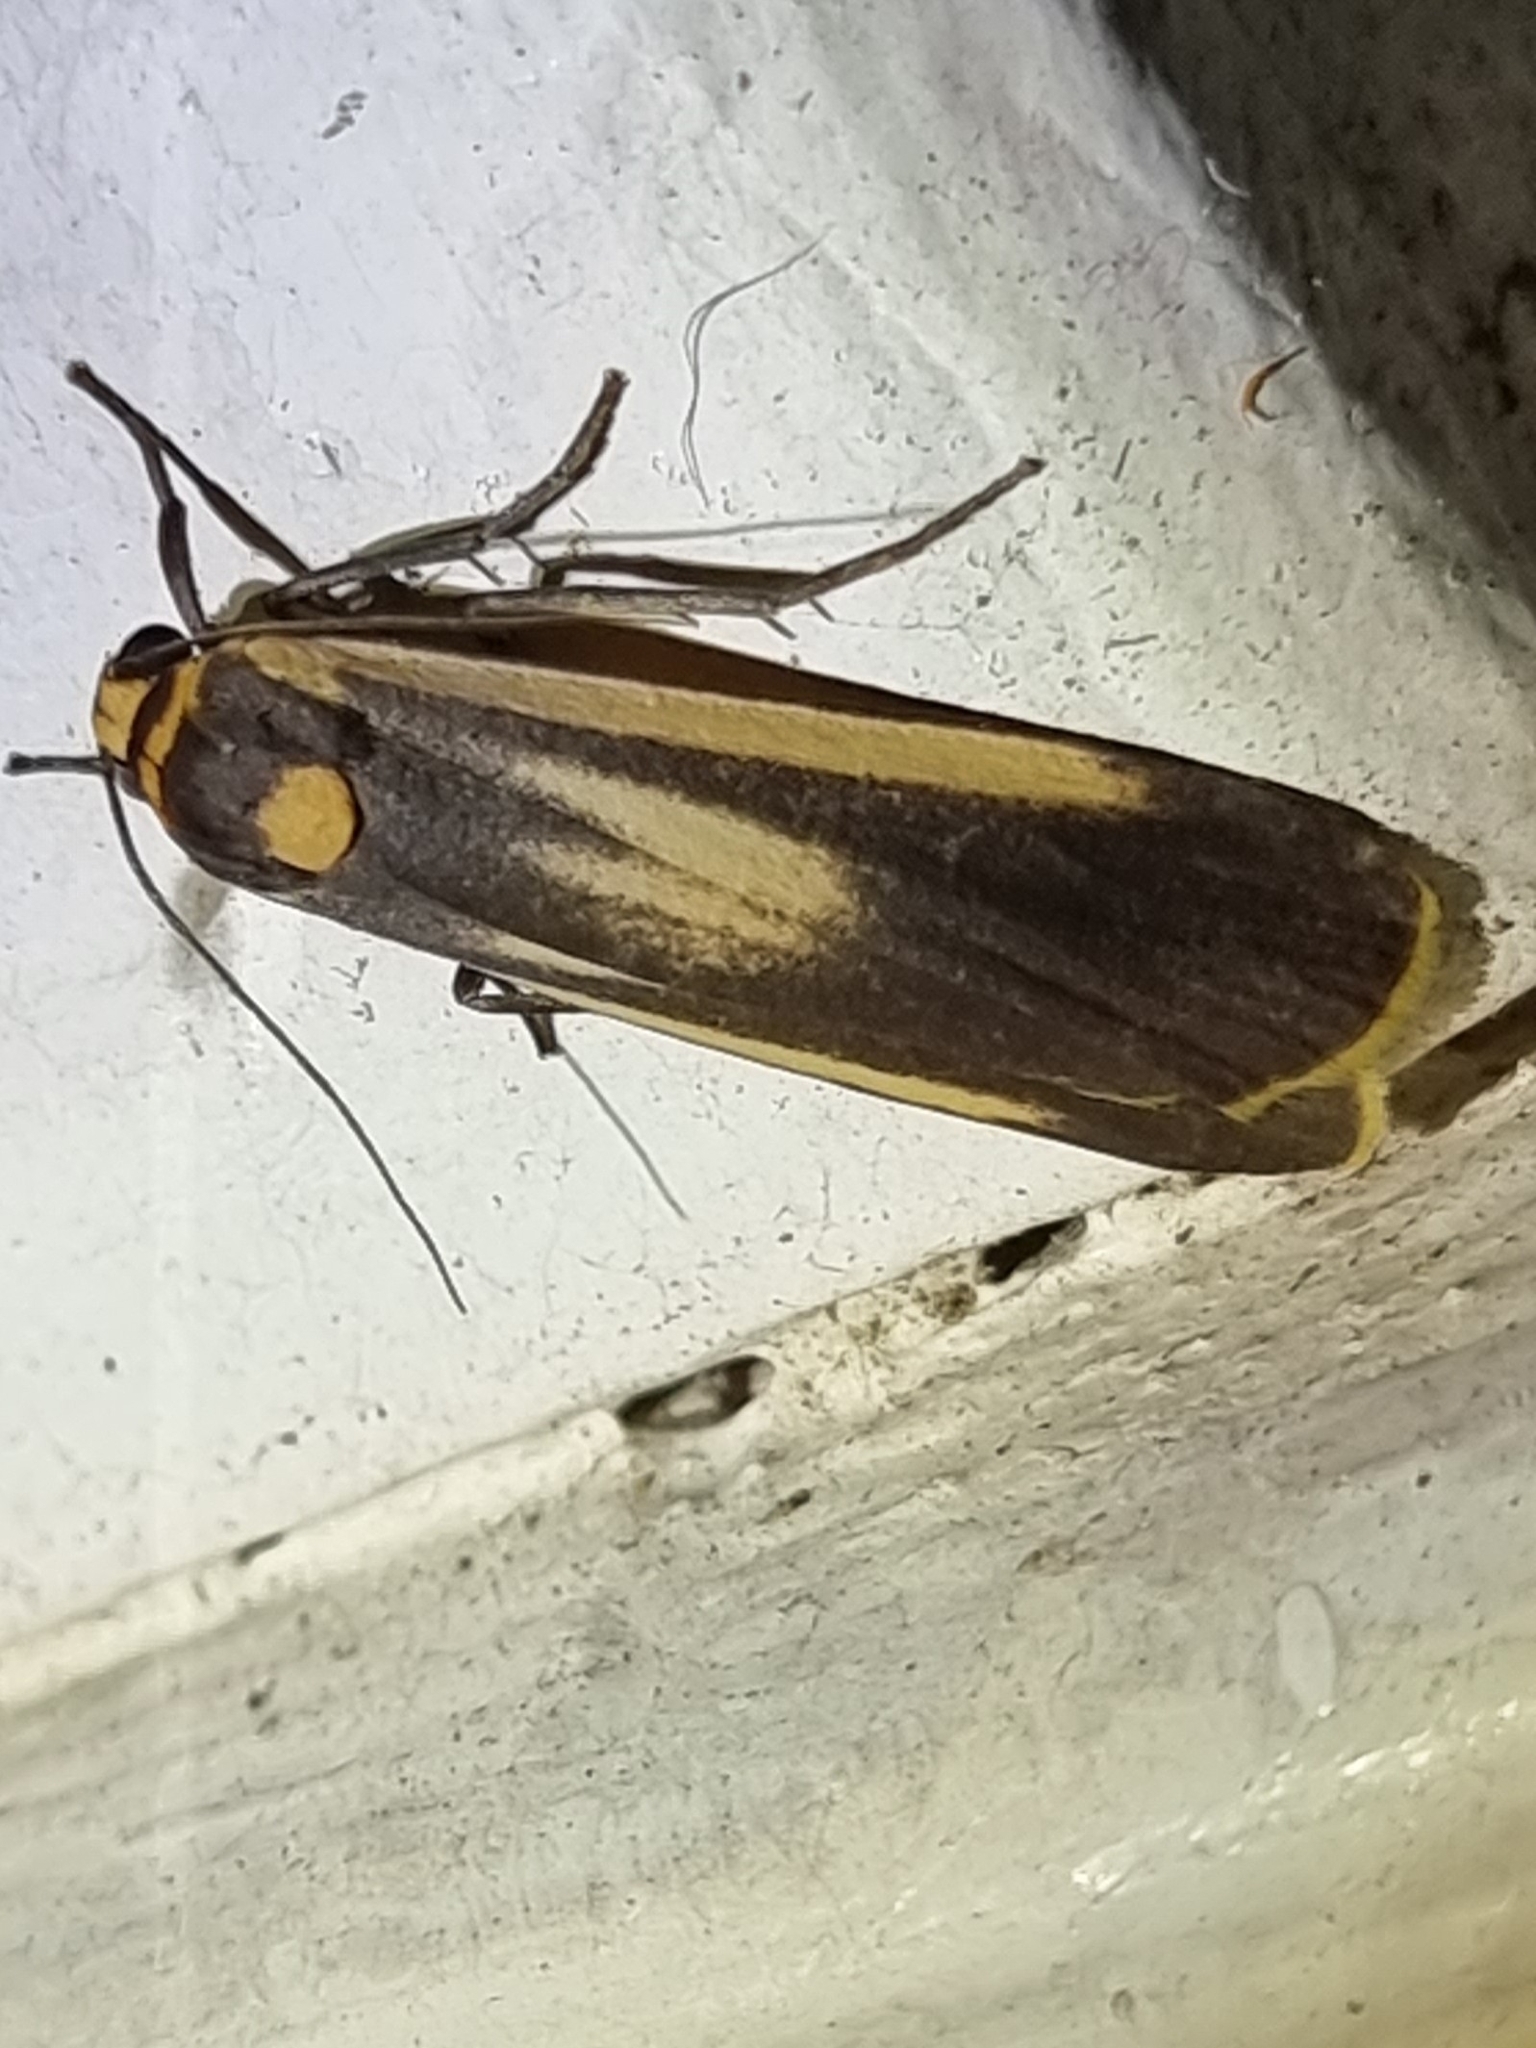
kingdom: Animalia
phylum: Arthropoda
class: Insecta
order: Lepidoptera
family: Erebidae
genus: Brunia
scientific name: Brunia replana
